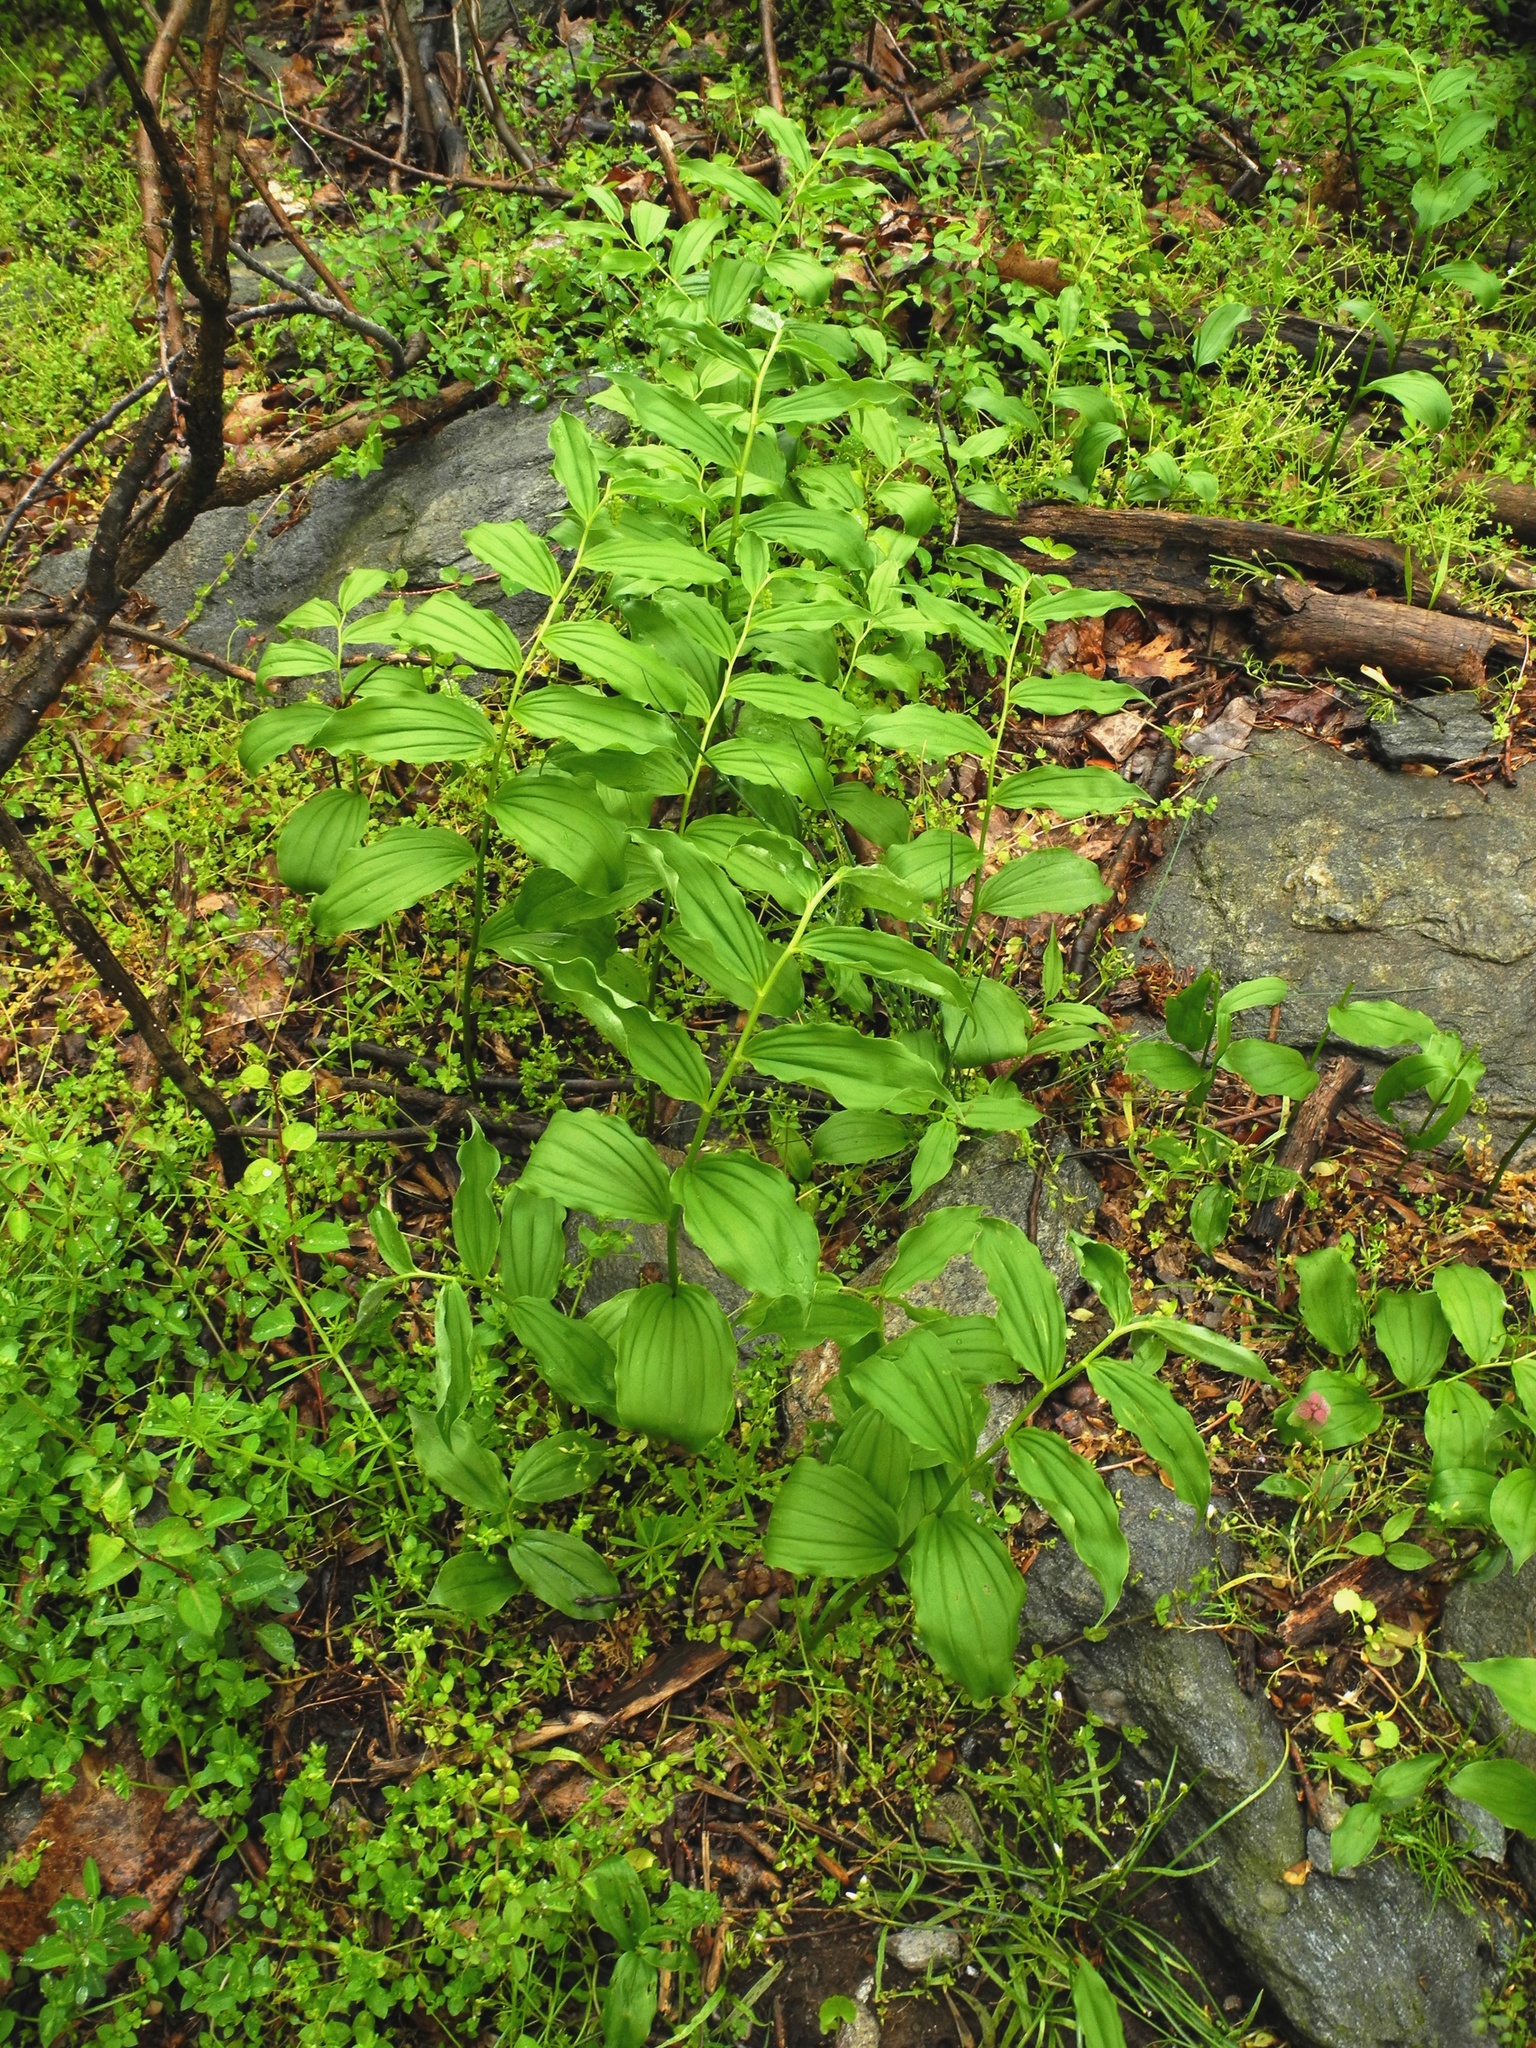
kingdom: Plantae
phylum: Tracheophyta
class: Liliopsida
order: Asparagales
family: Asparagaceae
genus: Maianthemum
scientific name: Maianthemum racemosum
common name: False spikenard
